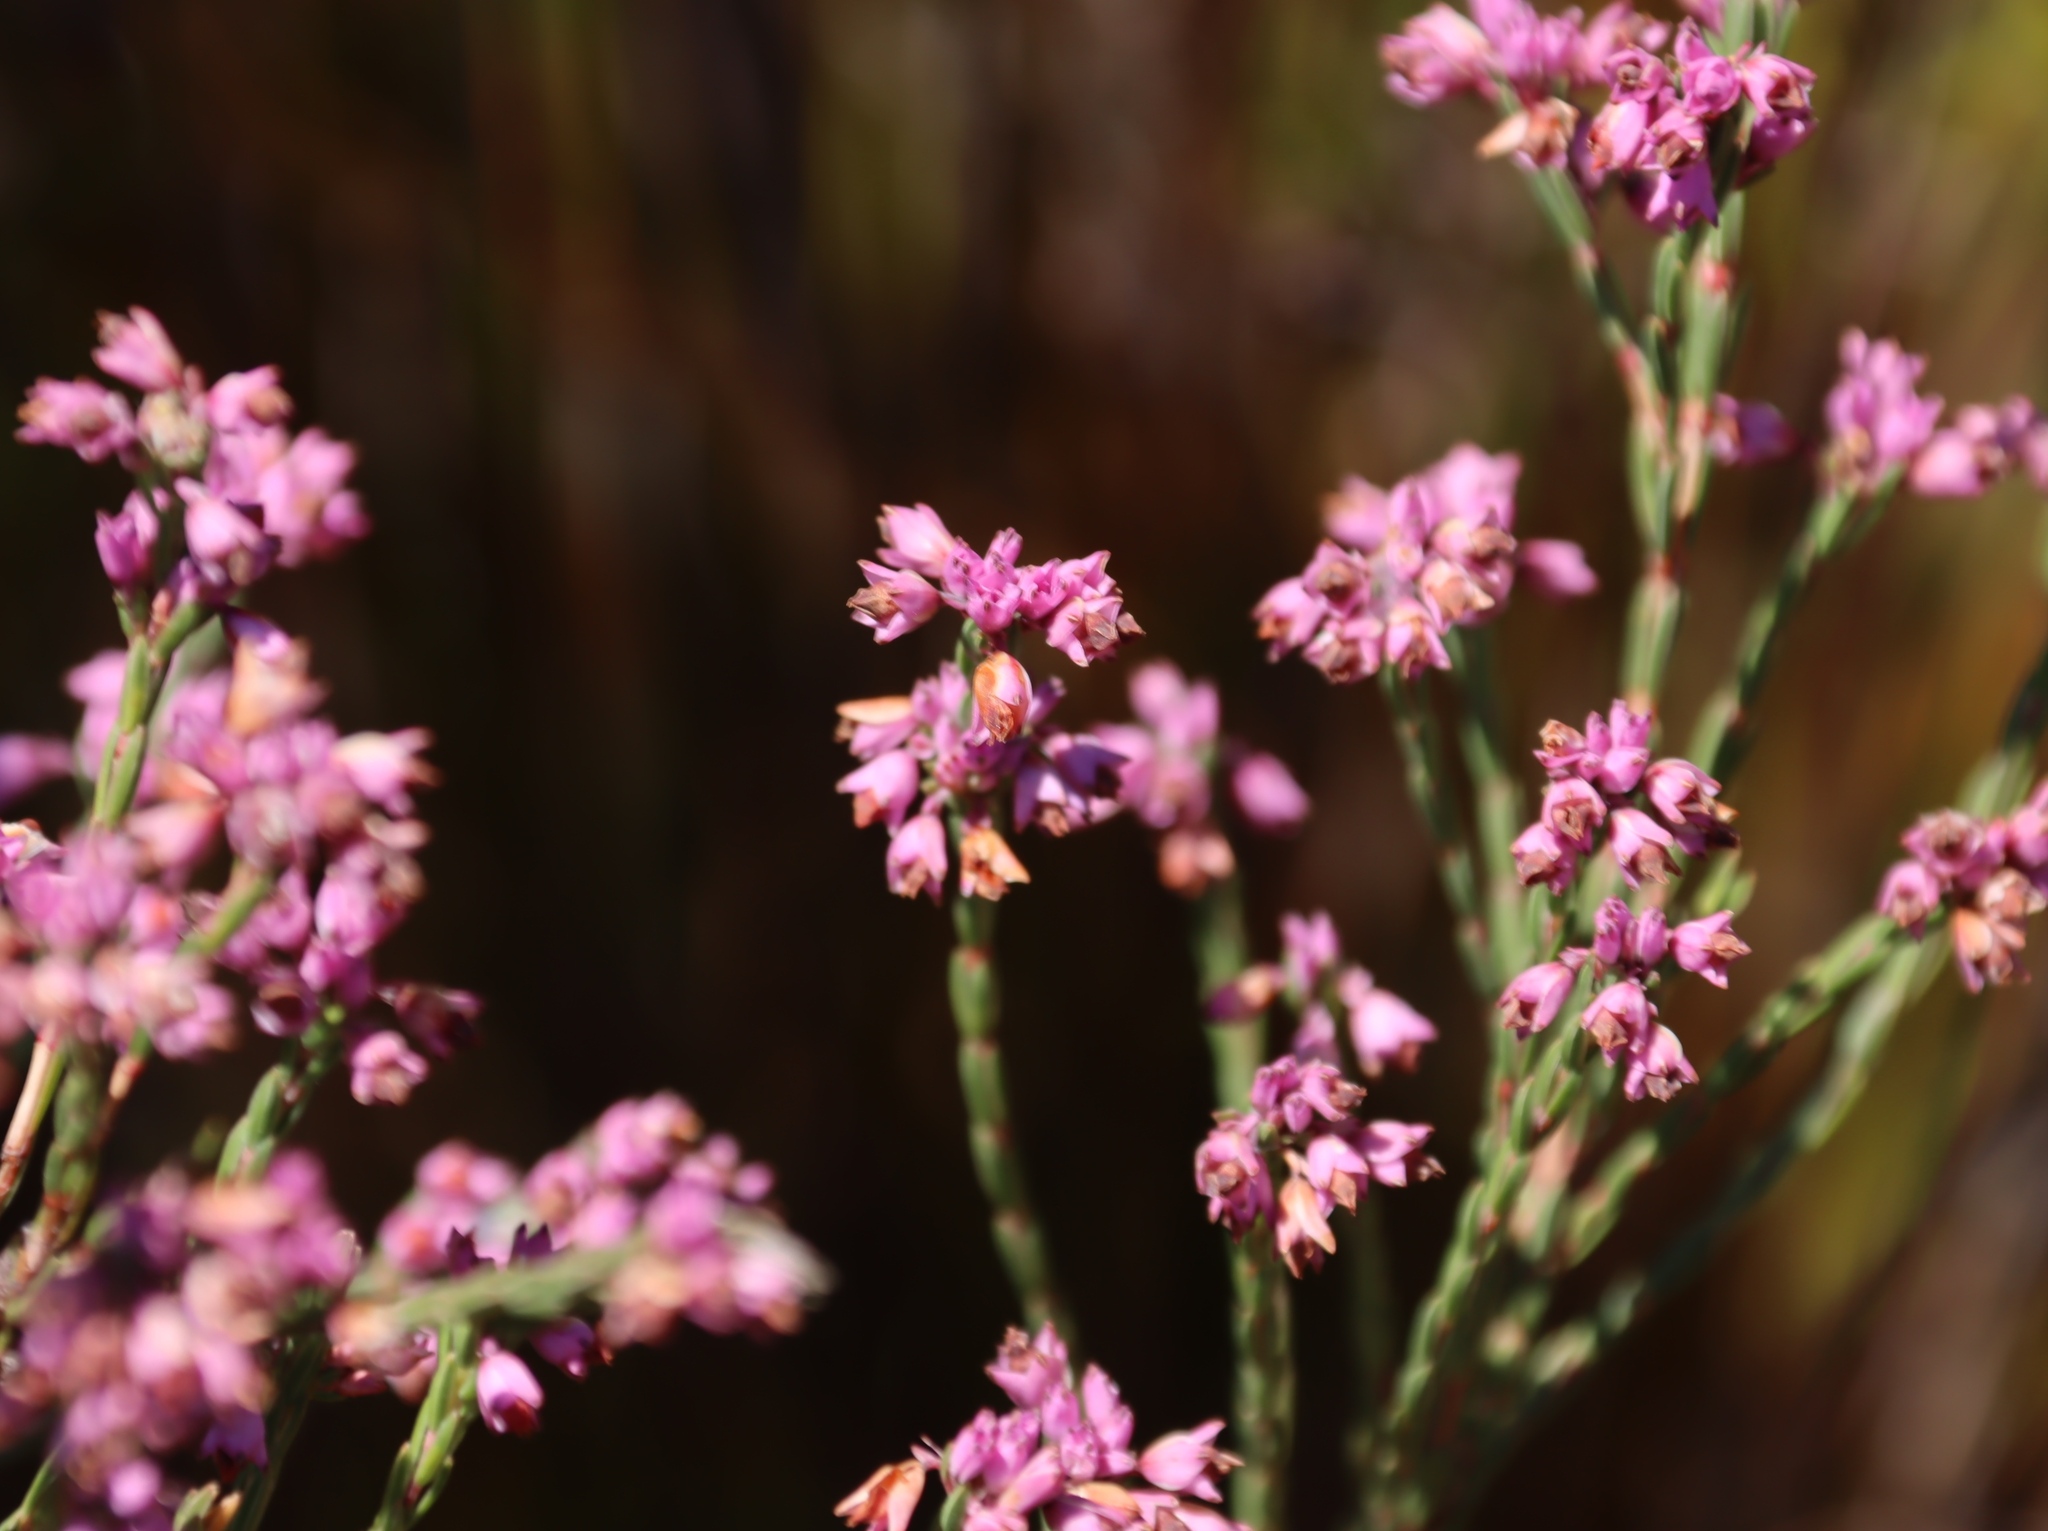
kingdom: Plantae
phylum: Tracheophyta
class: Magnoliopsida
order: Ericales
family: Ericaceae
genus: Erica
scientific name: Erica corifolia
